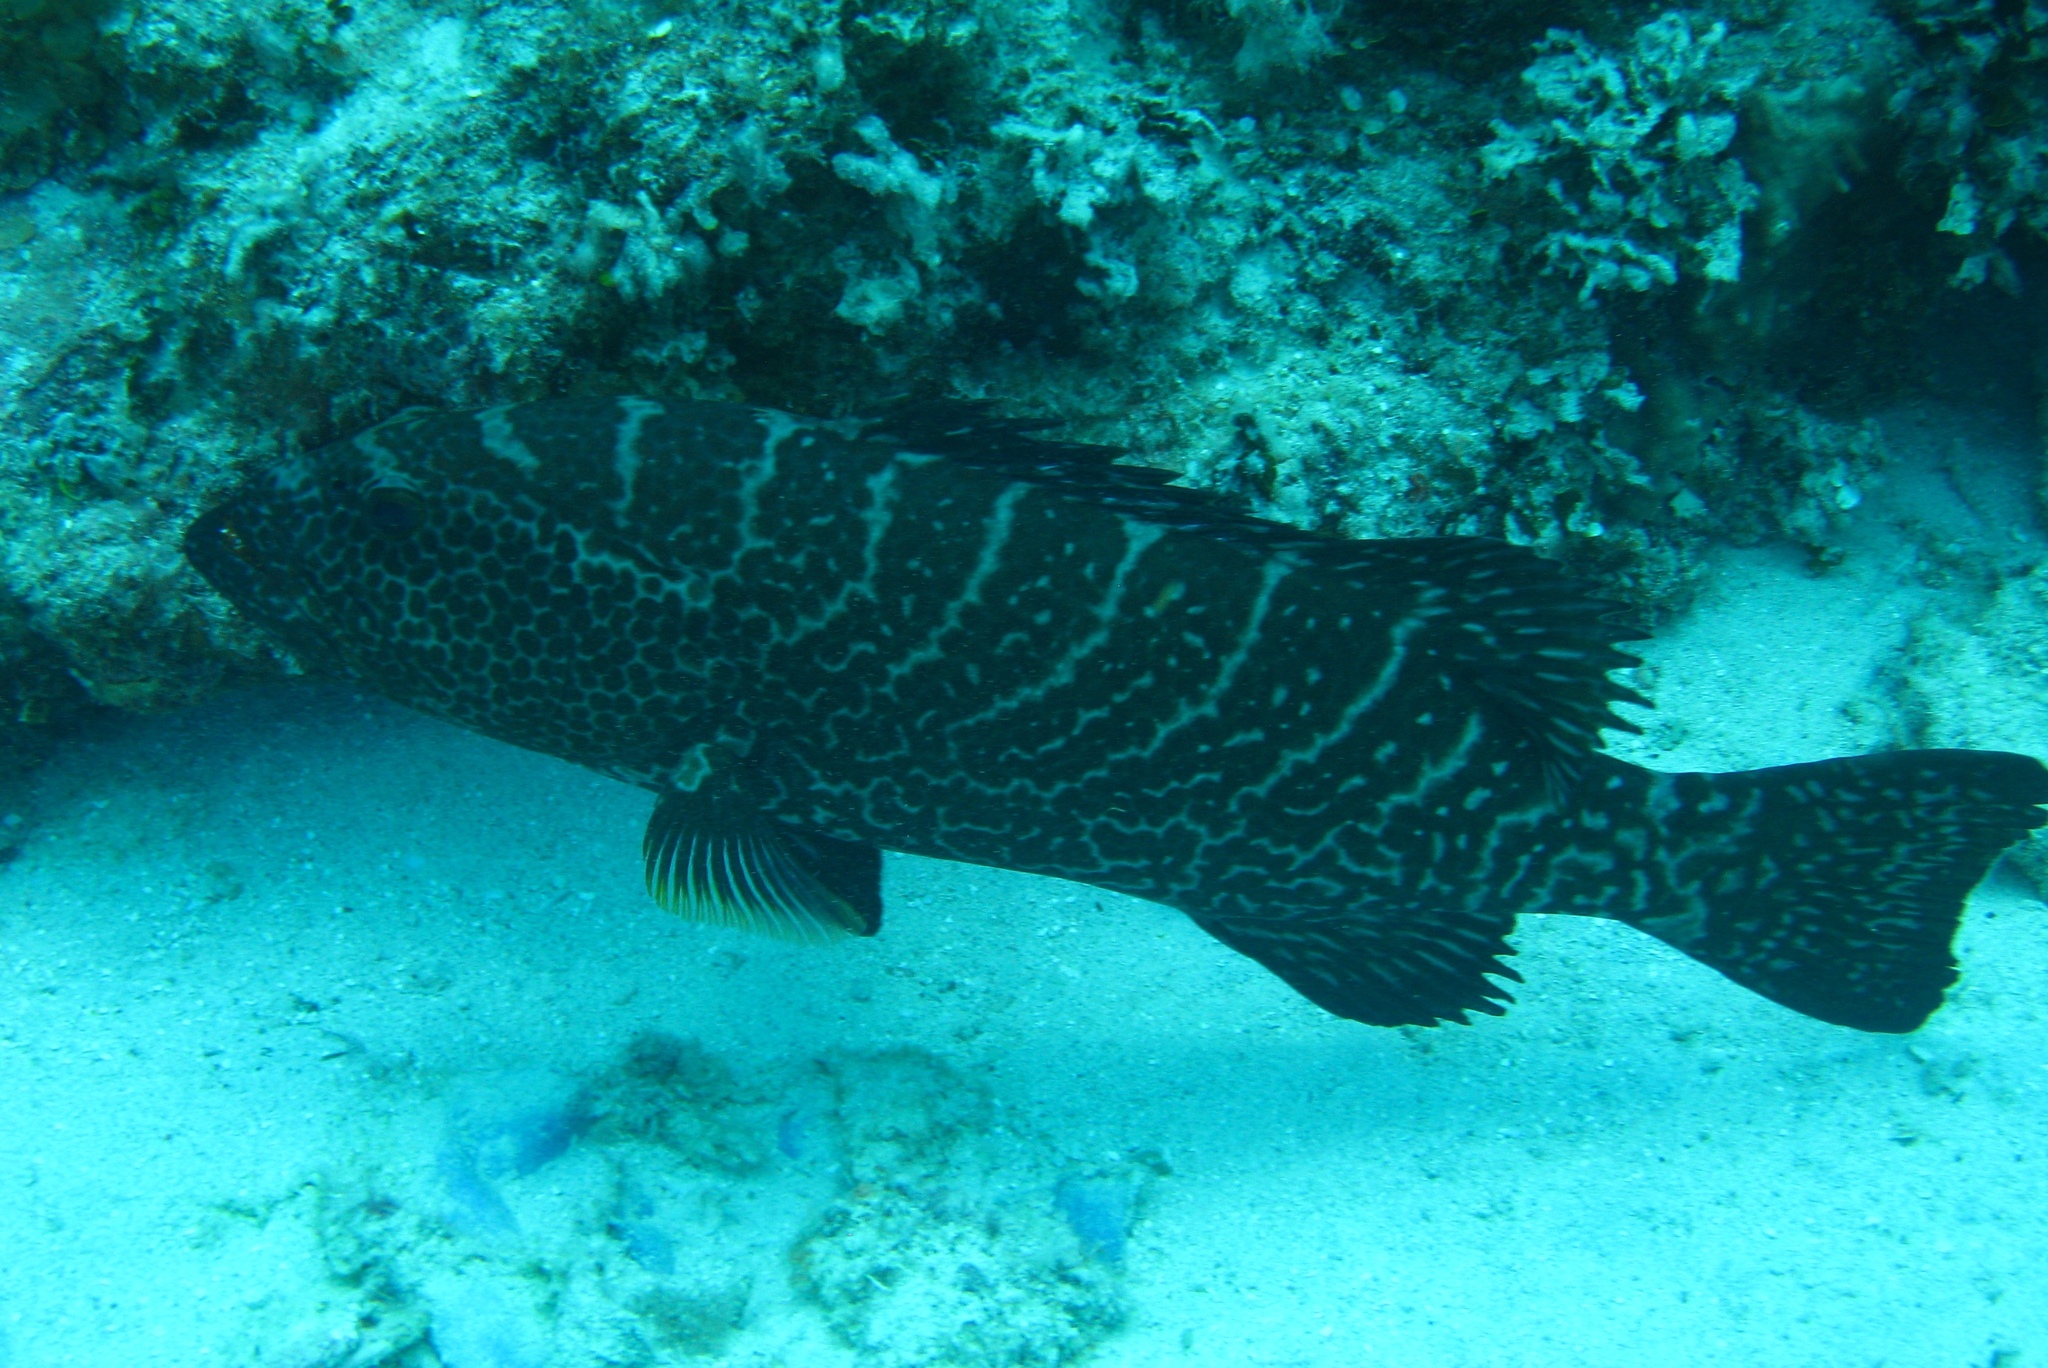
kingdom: Animalia
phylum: Chordata
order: Perciformes
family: Serranidae
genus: Mycteroperca
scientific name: Mycteroperca tigris
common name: Tiger grouper
